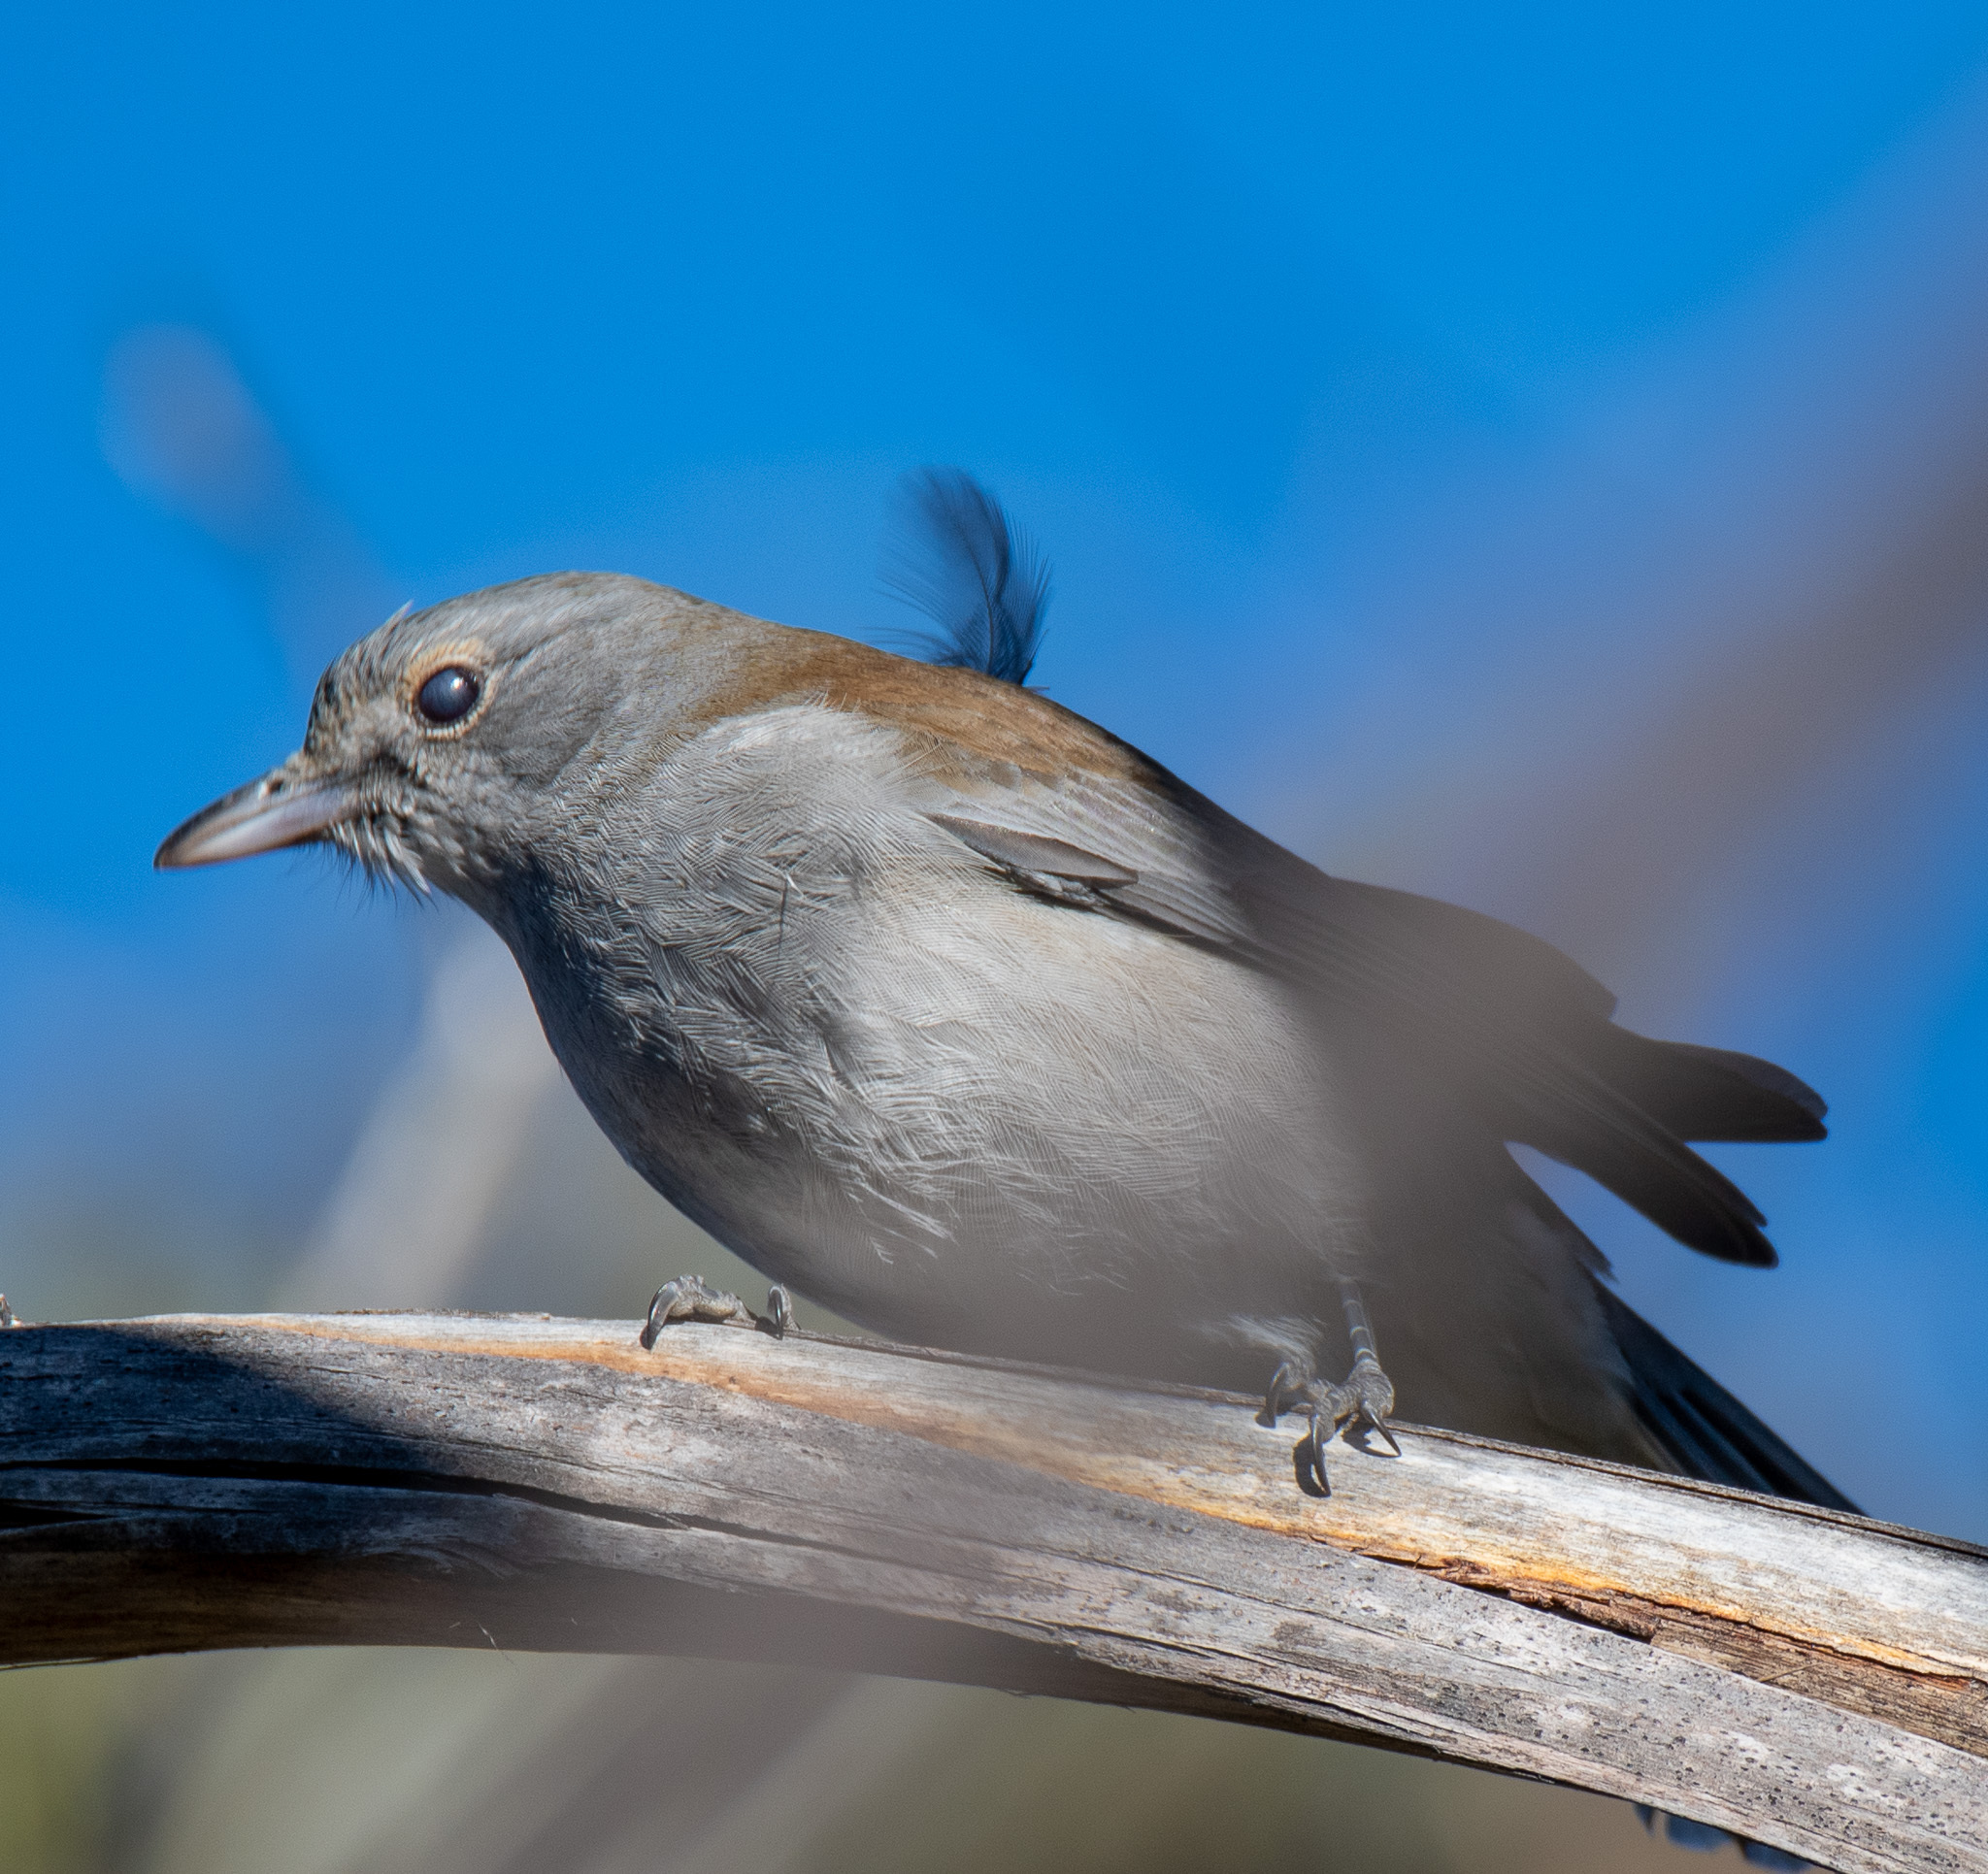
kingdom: Animalia
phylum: Chordata
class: Aves
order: Passeriformes
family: Pachycephalidae
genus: Colluricincla
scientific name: Colluricincla harmonica
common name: Grey shrikethrush
